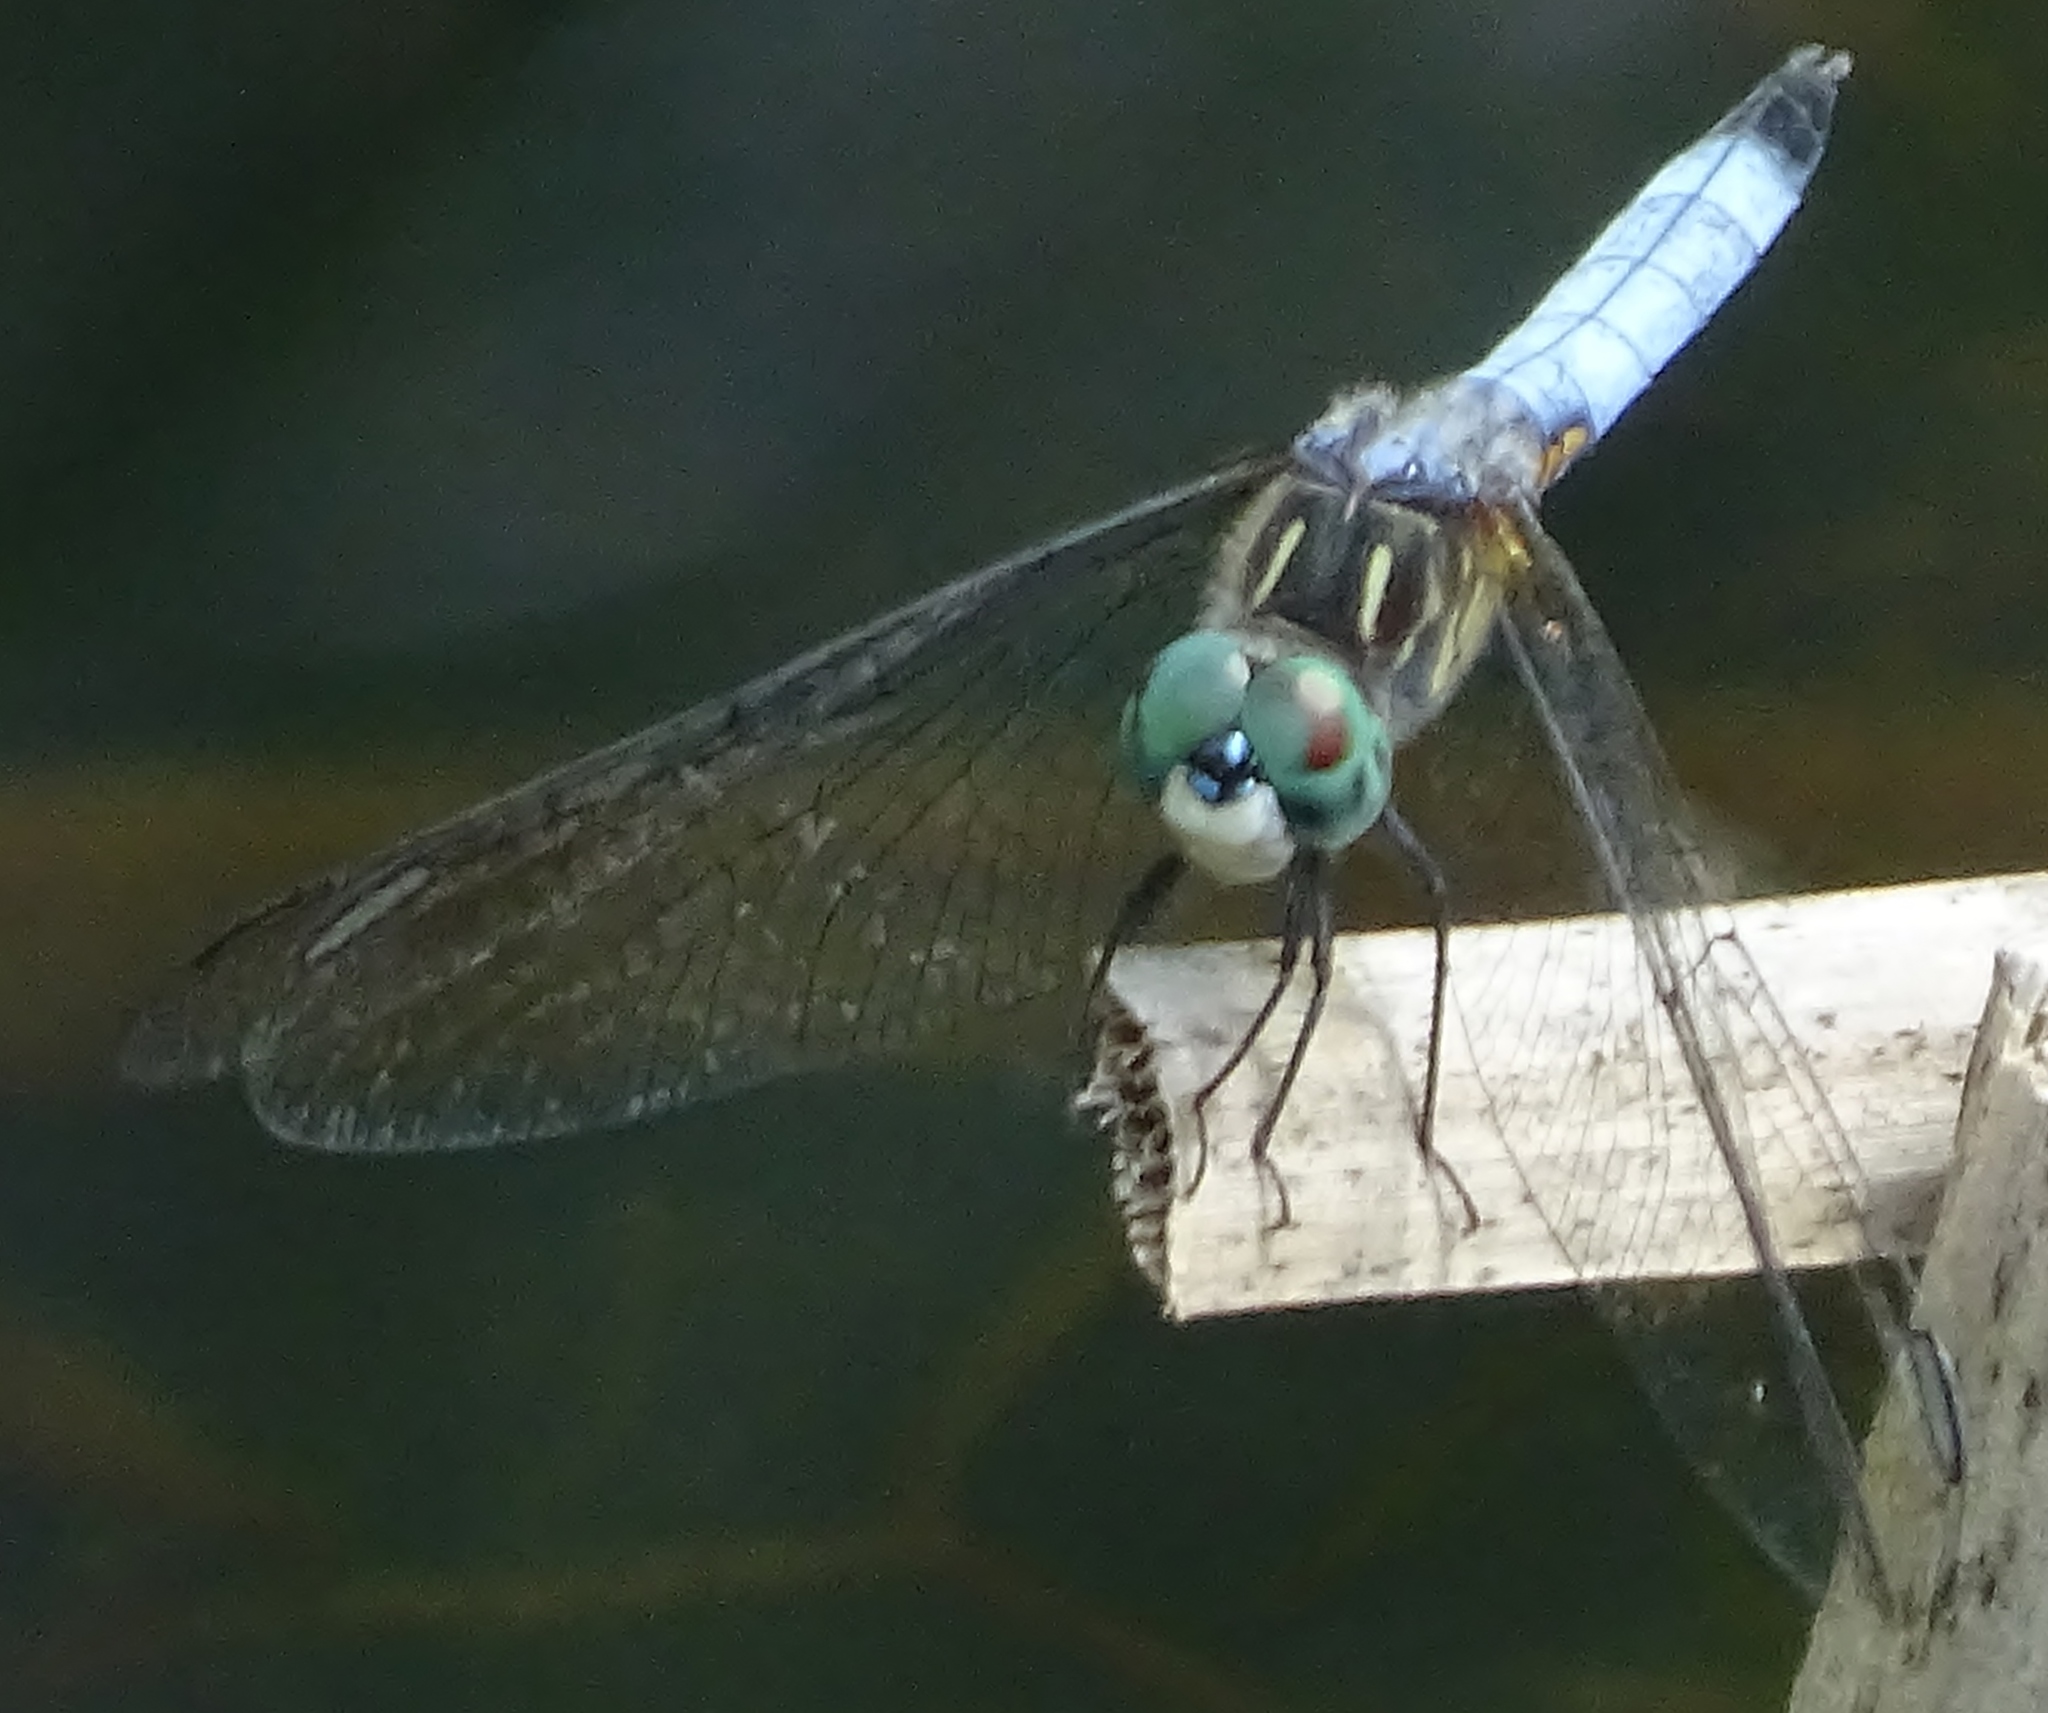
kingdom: Animalia
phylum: Arthropoda
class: Insecta
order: Odonata
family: Libellulidae
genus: Pachydiplax
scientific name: Pachydiplax longipennis
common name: Blue dasher
